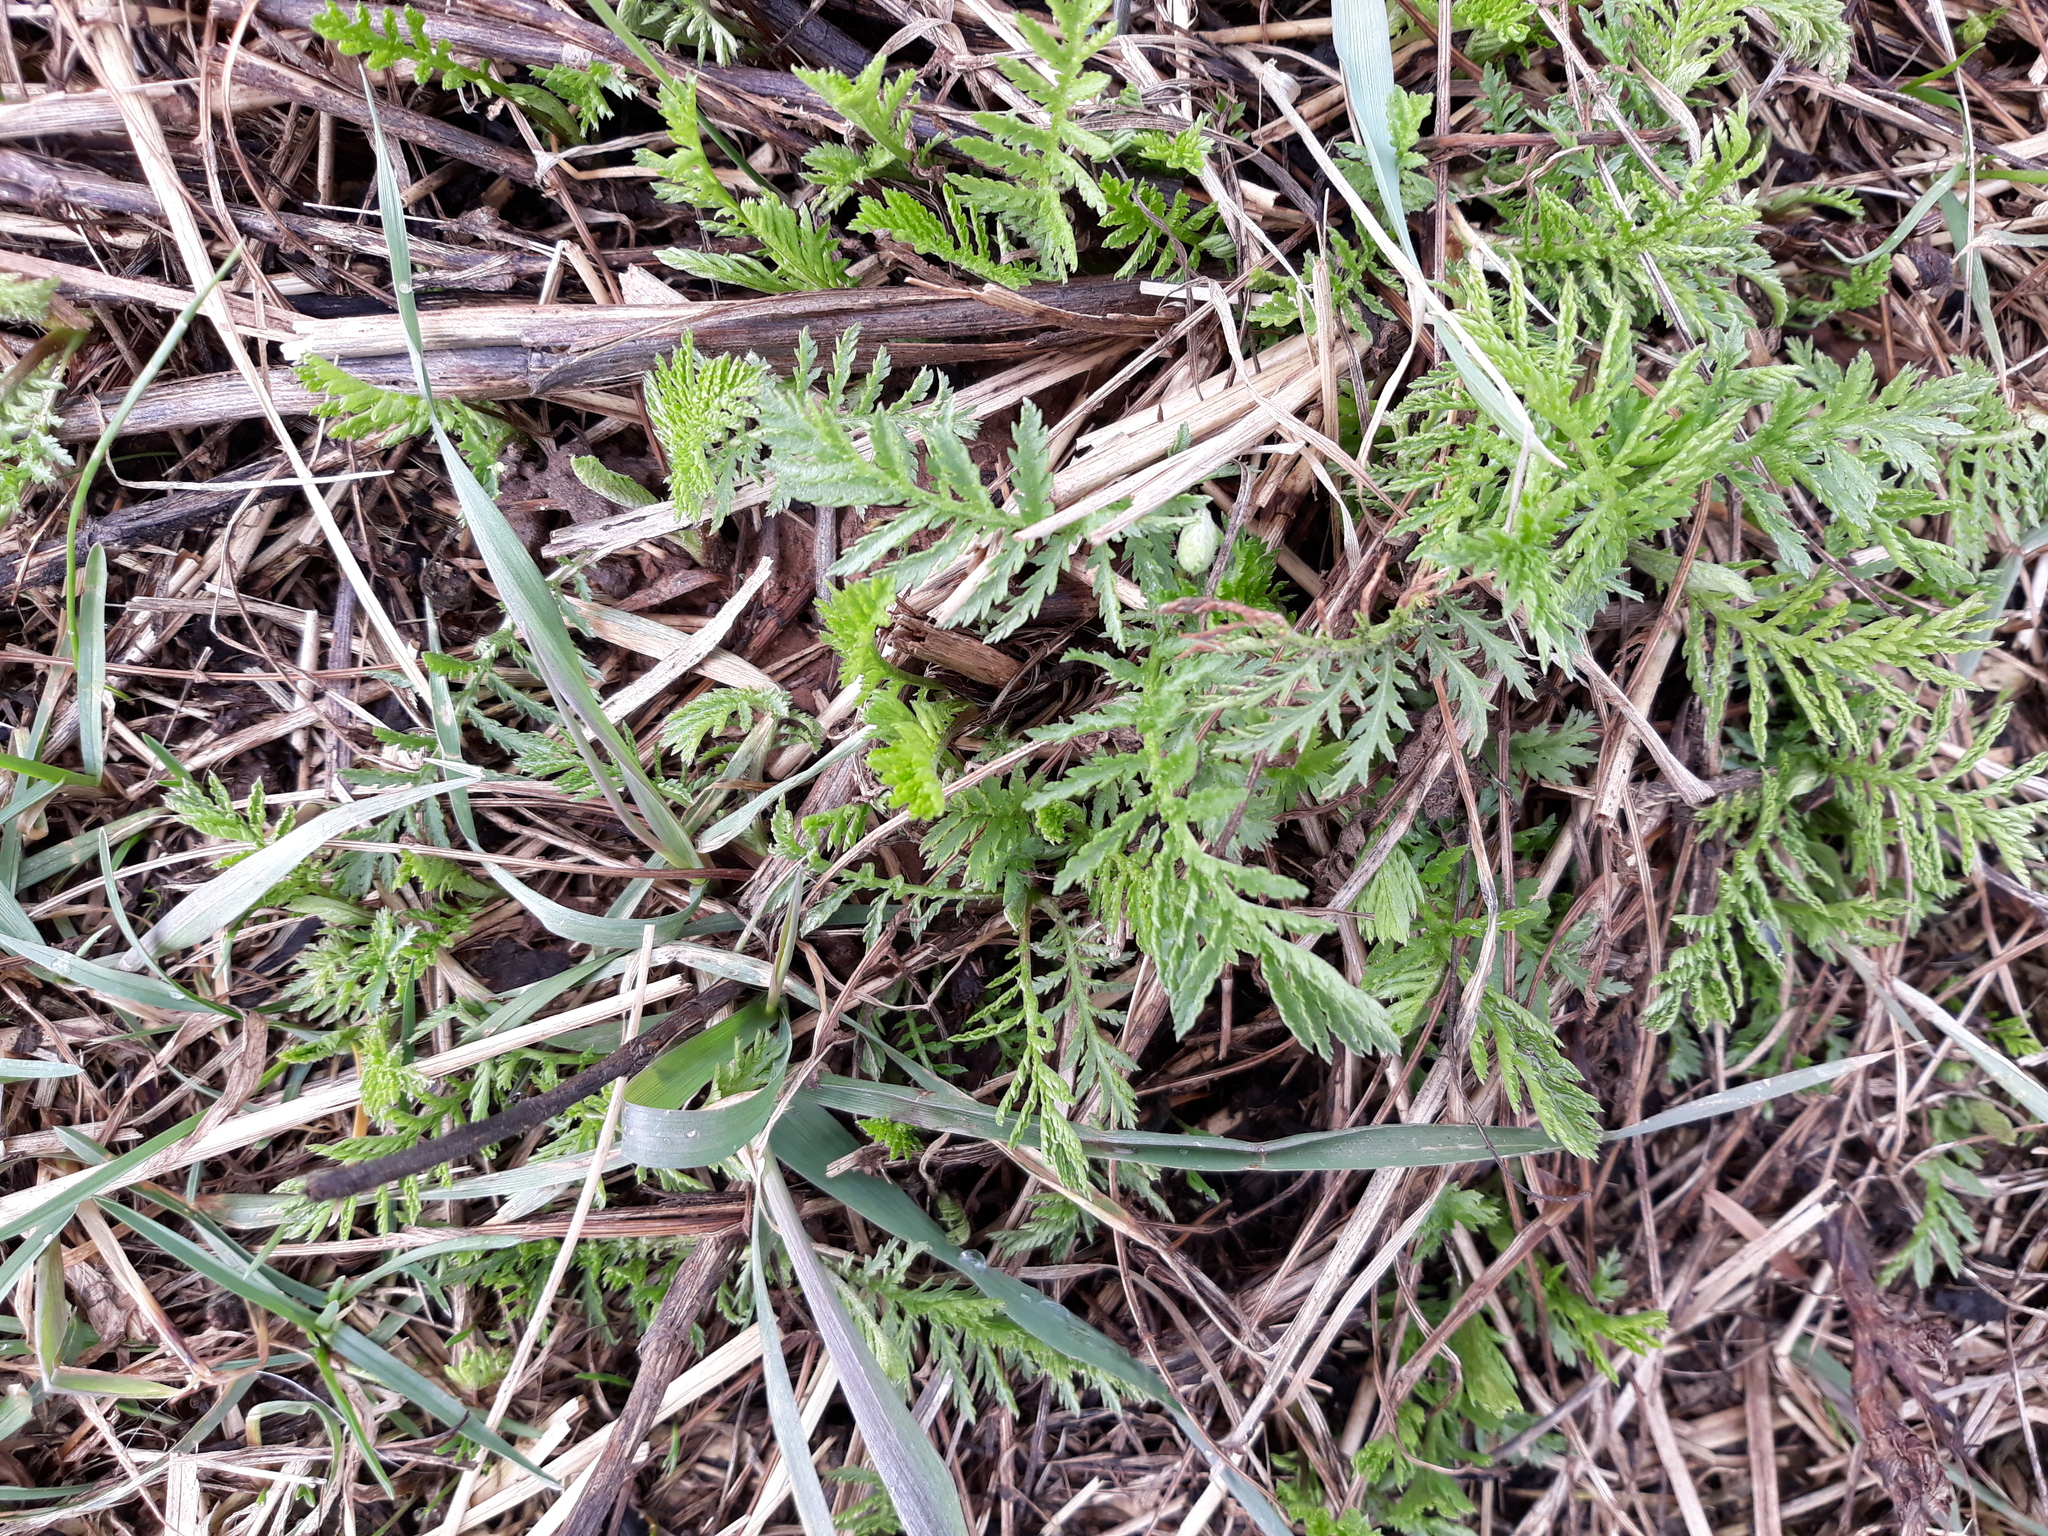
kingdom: Plantae
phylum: Tracheophyta
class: Magnoliopsida
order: Asterales
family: Asteraceae
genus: Tanacetum
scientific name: Tanacetum vulgare
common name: Common tansy
